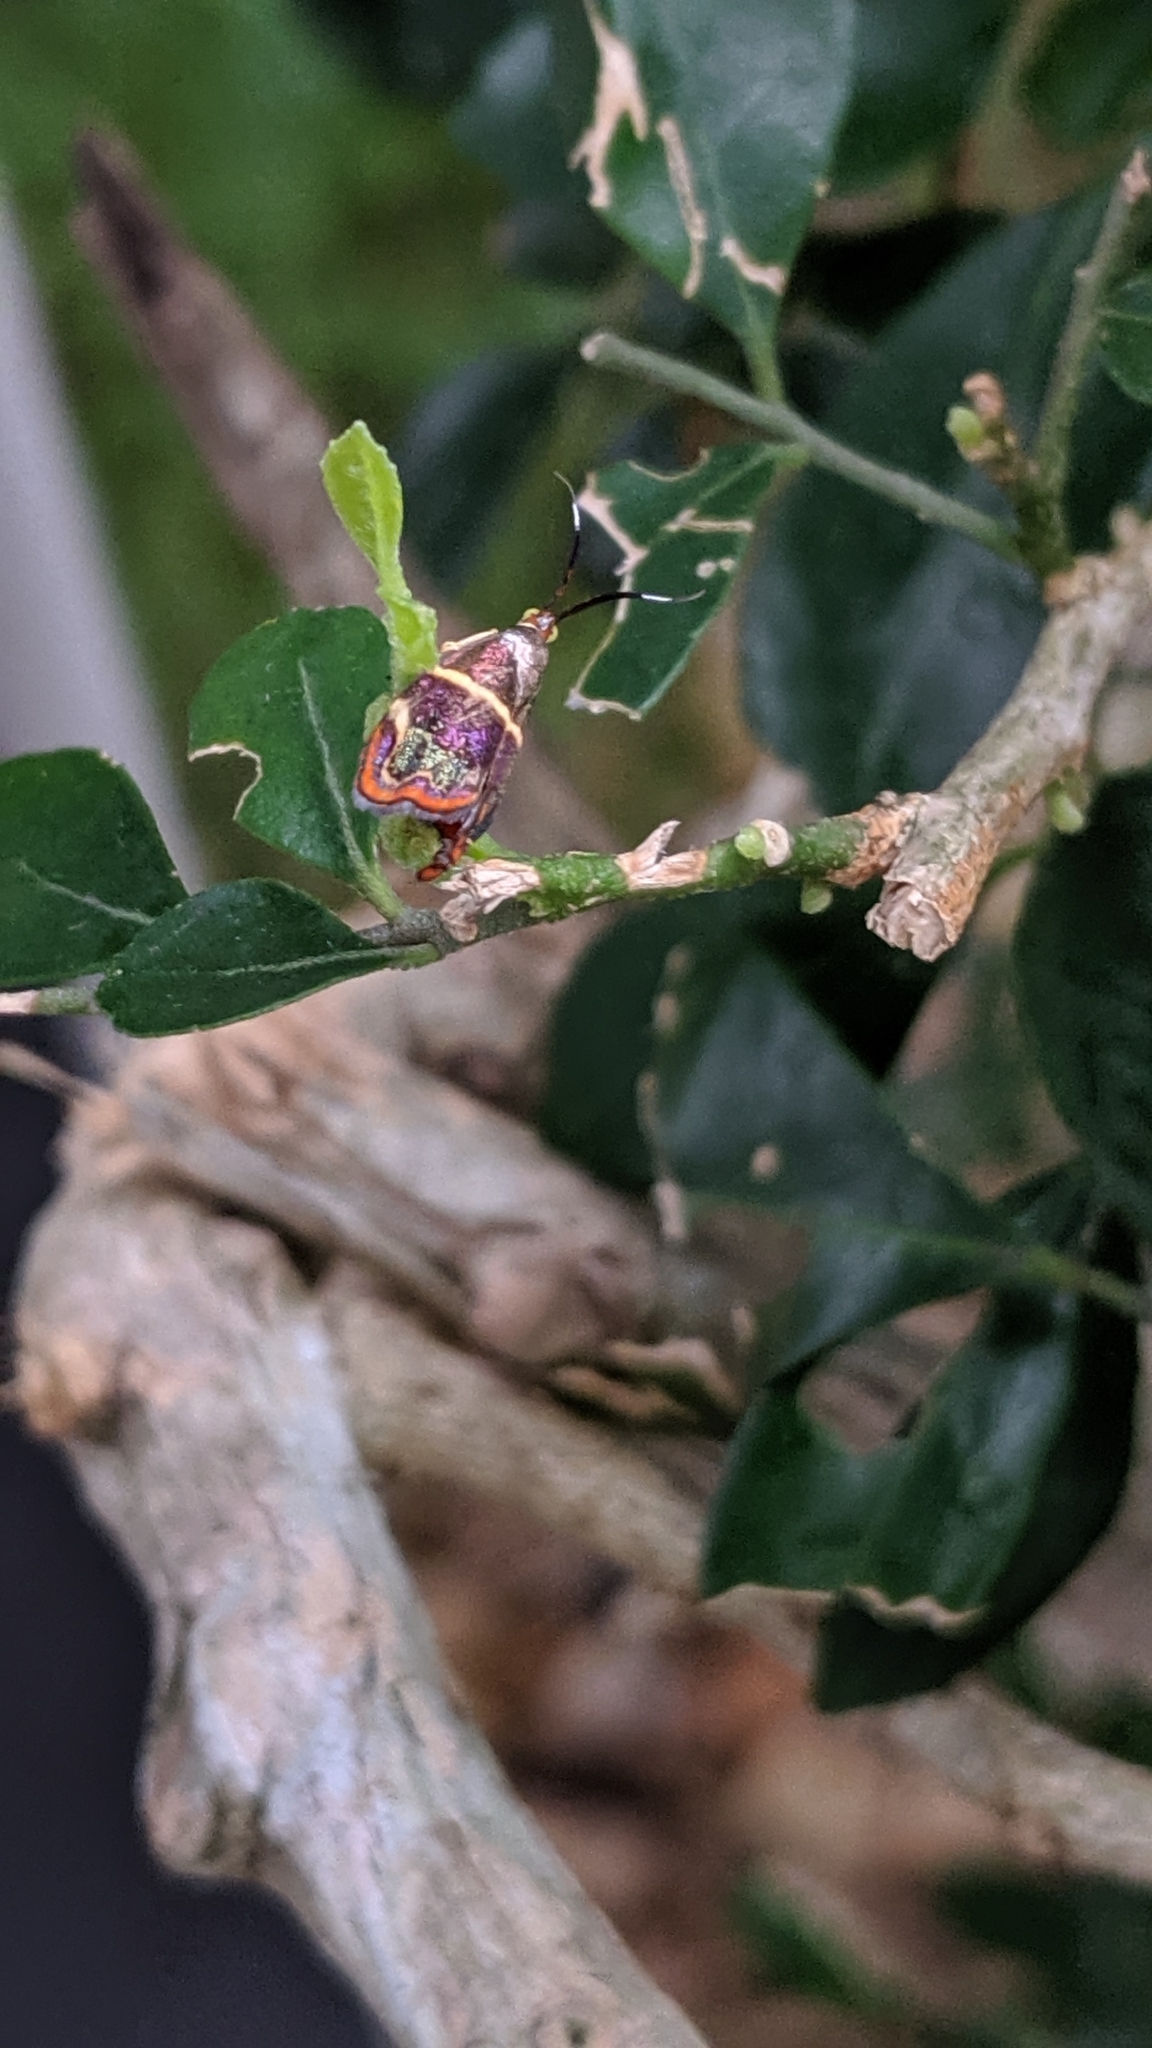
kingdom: Animalia
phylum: Arthropoda
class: Insecta
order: Lepidoptera
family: Choreutidae
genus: Hemerophila
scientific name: Hemerophila
